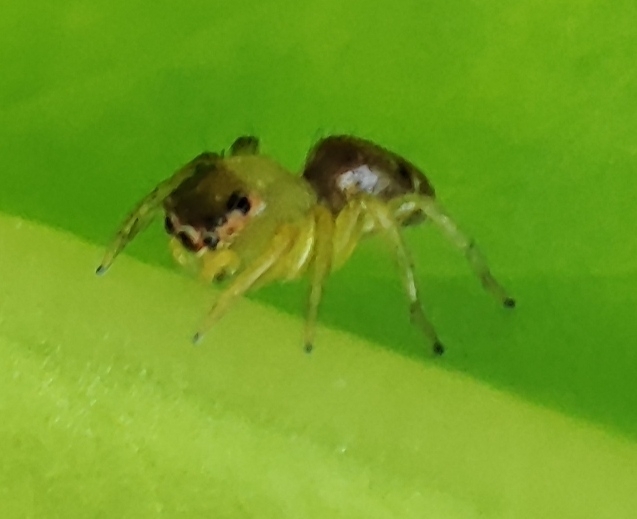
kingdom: Animalia
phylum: Arthropoda
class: Arachnida
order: Araneae
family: Salticidae
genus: Cytaea
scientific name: Cytaea dispalans
